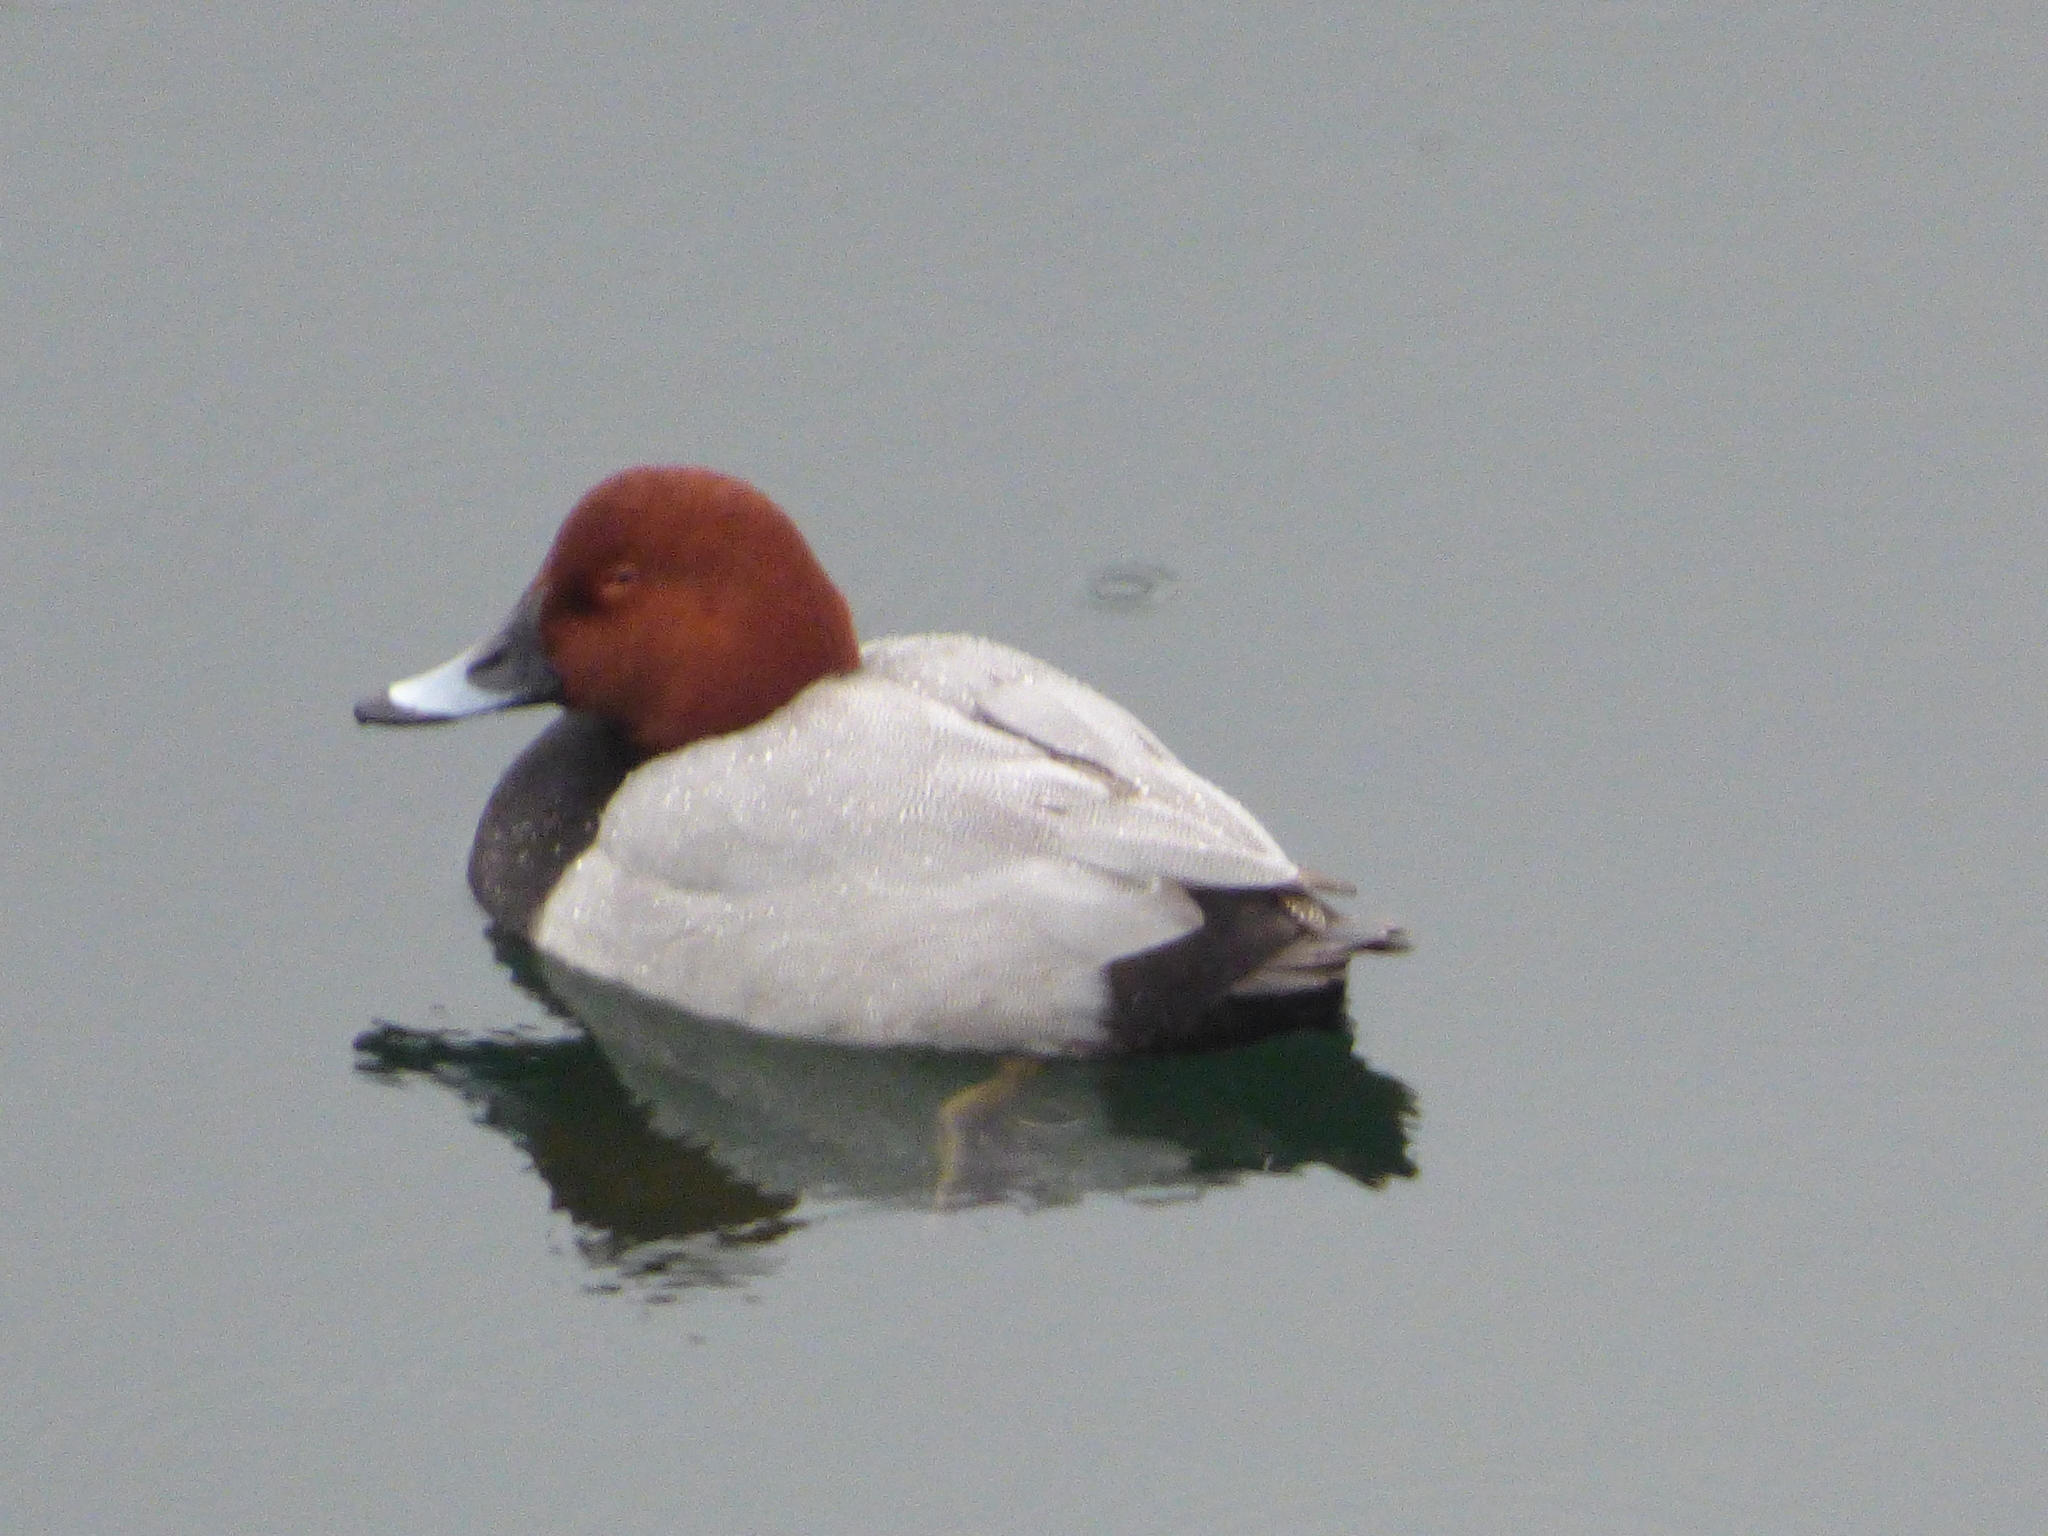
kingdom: Animalia
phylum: Chordata
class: Aves
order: Anseriformes
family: Anatidae
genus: Aythya
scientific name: Aythya ferina
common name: Common pochard
